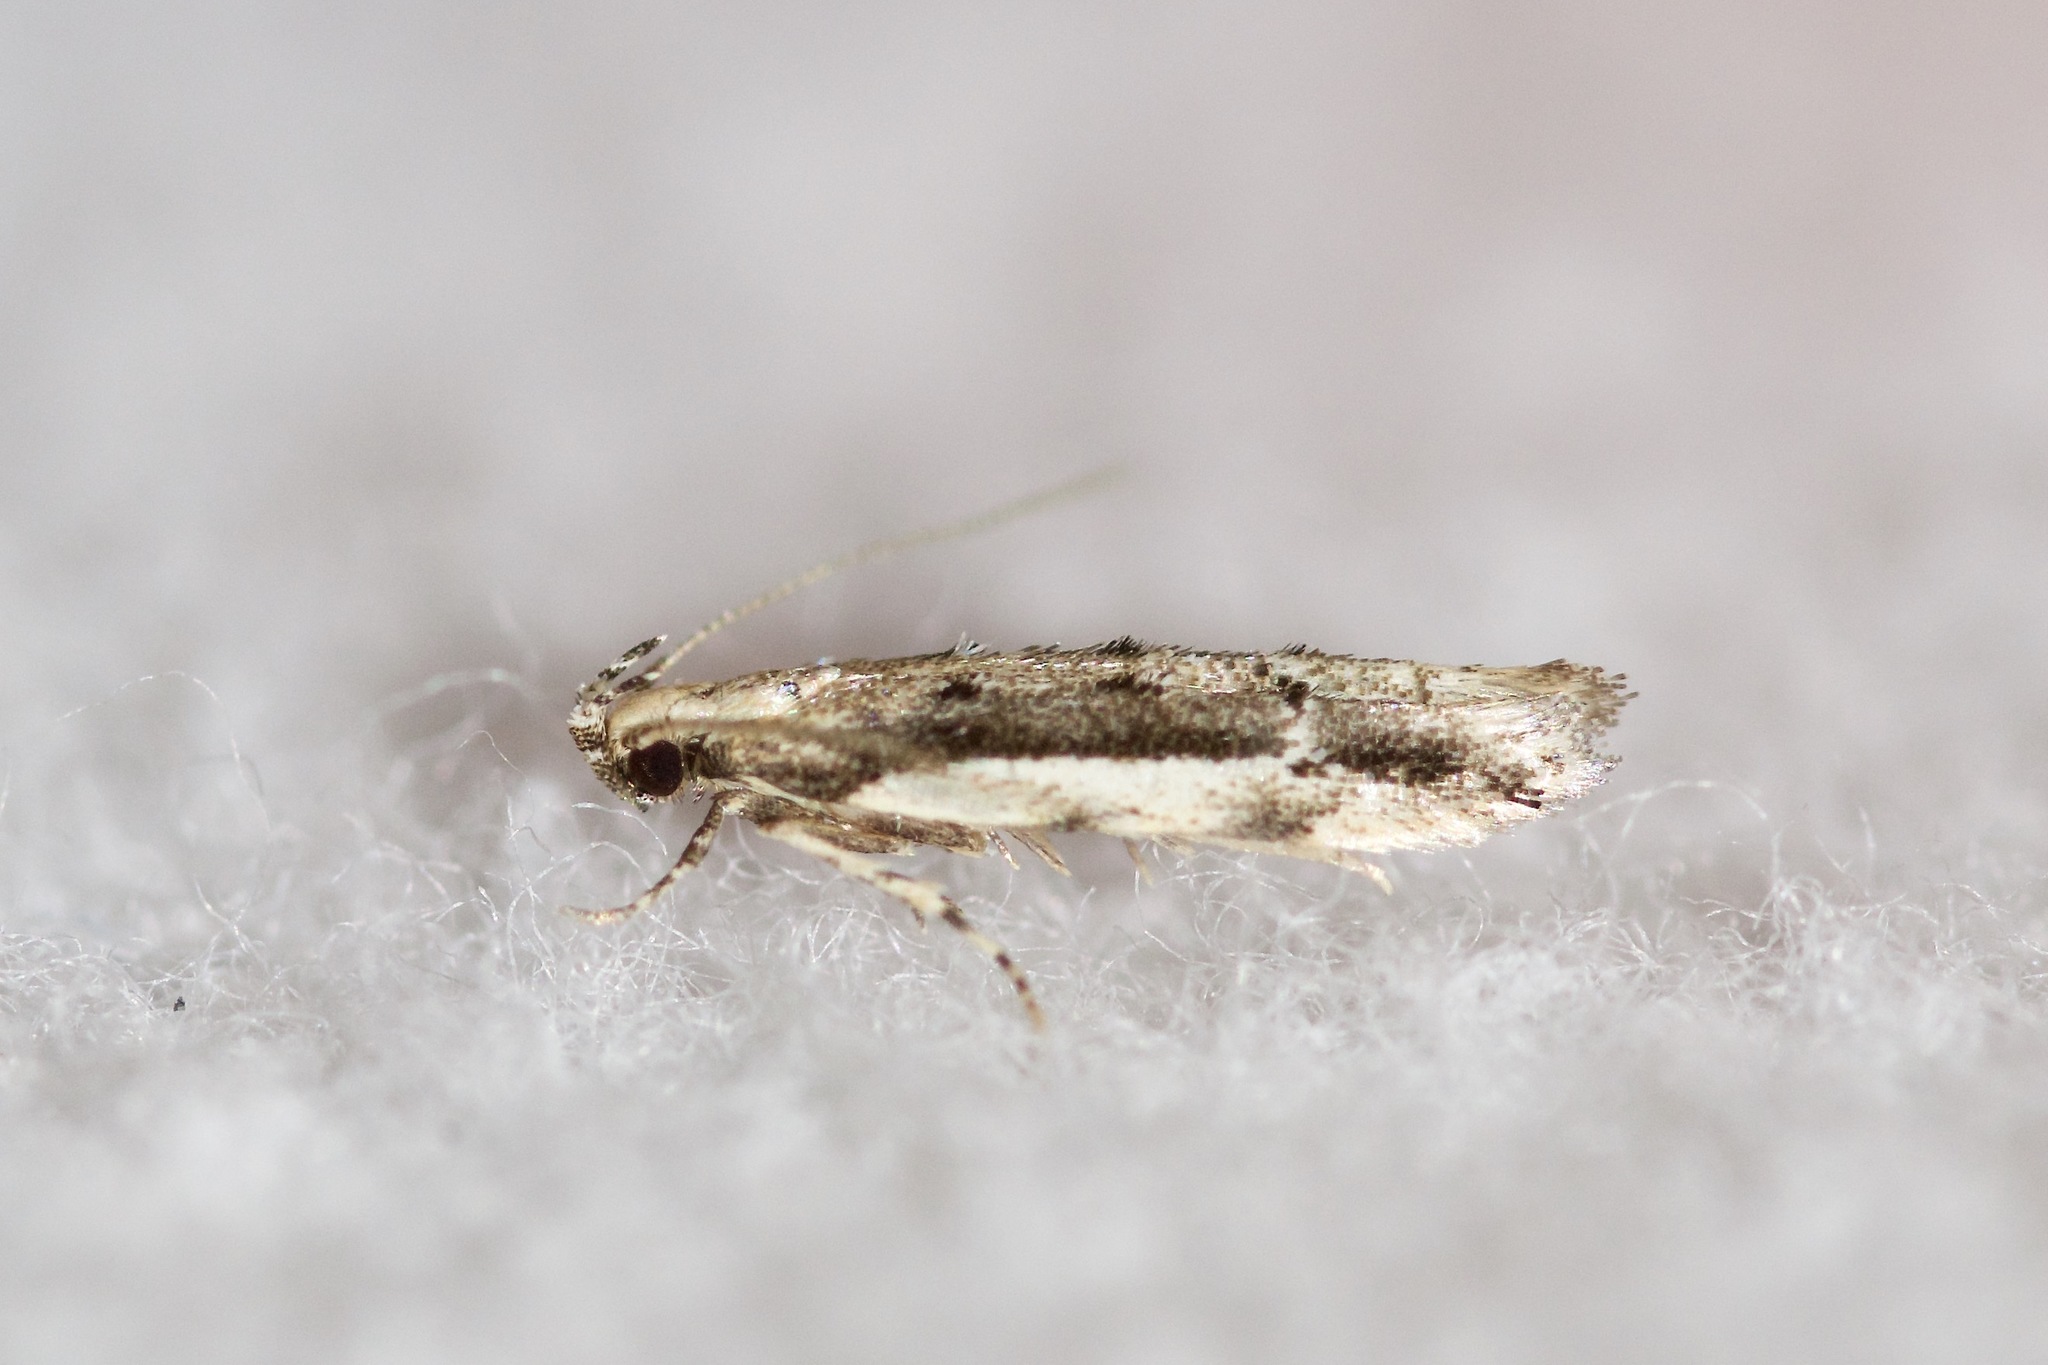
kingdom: Animalia
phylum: Arthropoda
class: Insecta
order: Lepidoptera
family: Gelechiidae
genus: Coleotechnites
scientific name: Coleotechnites albicostata
